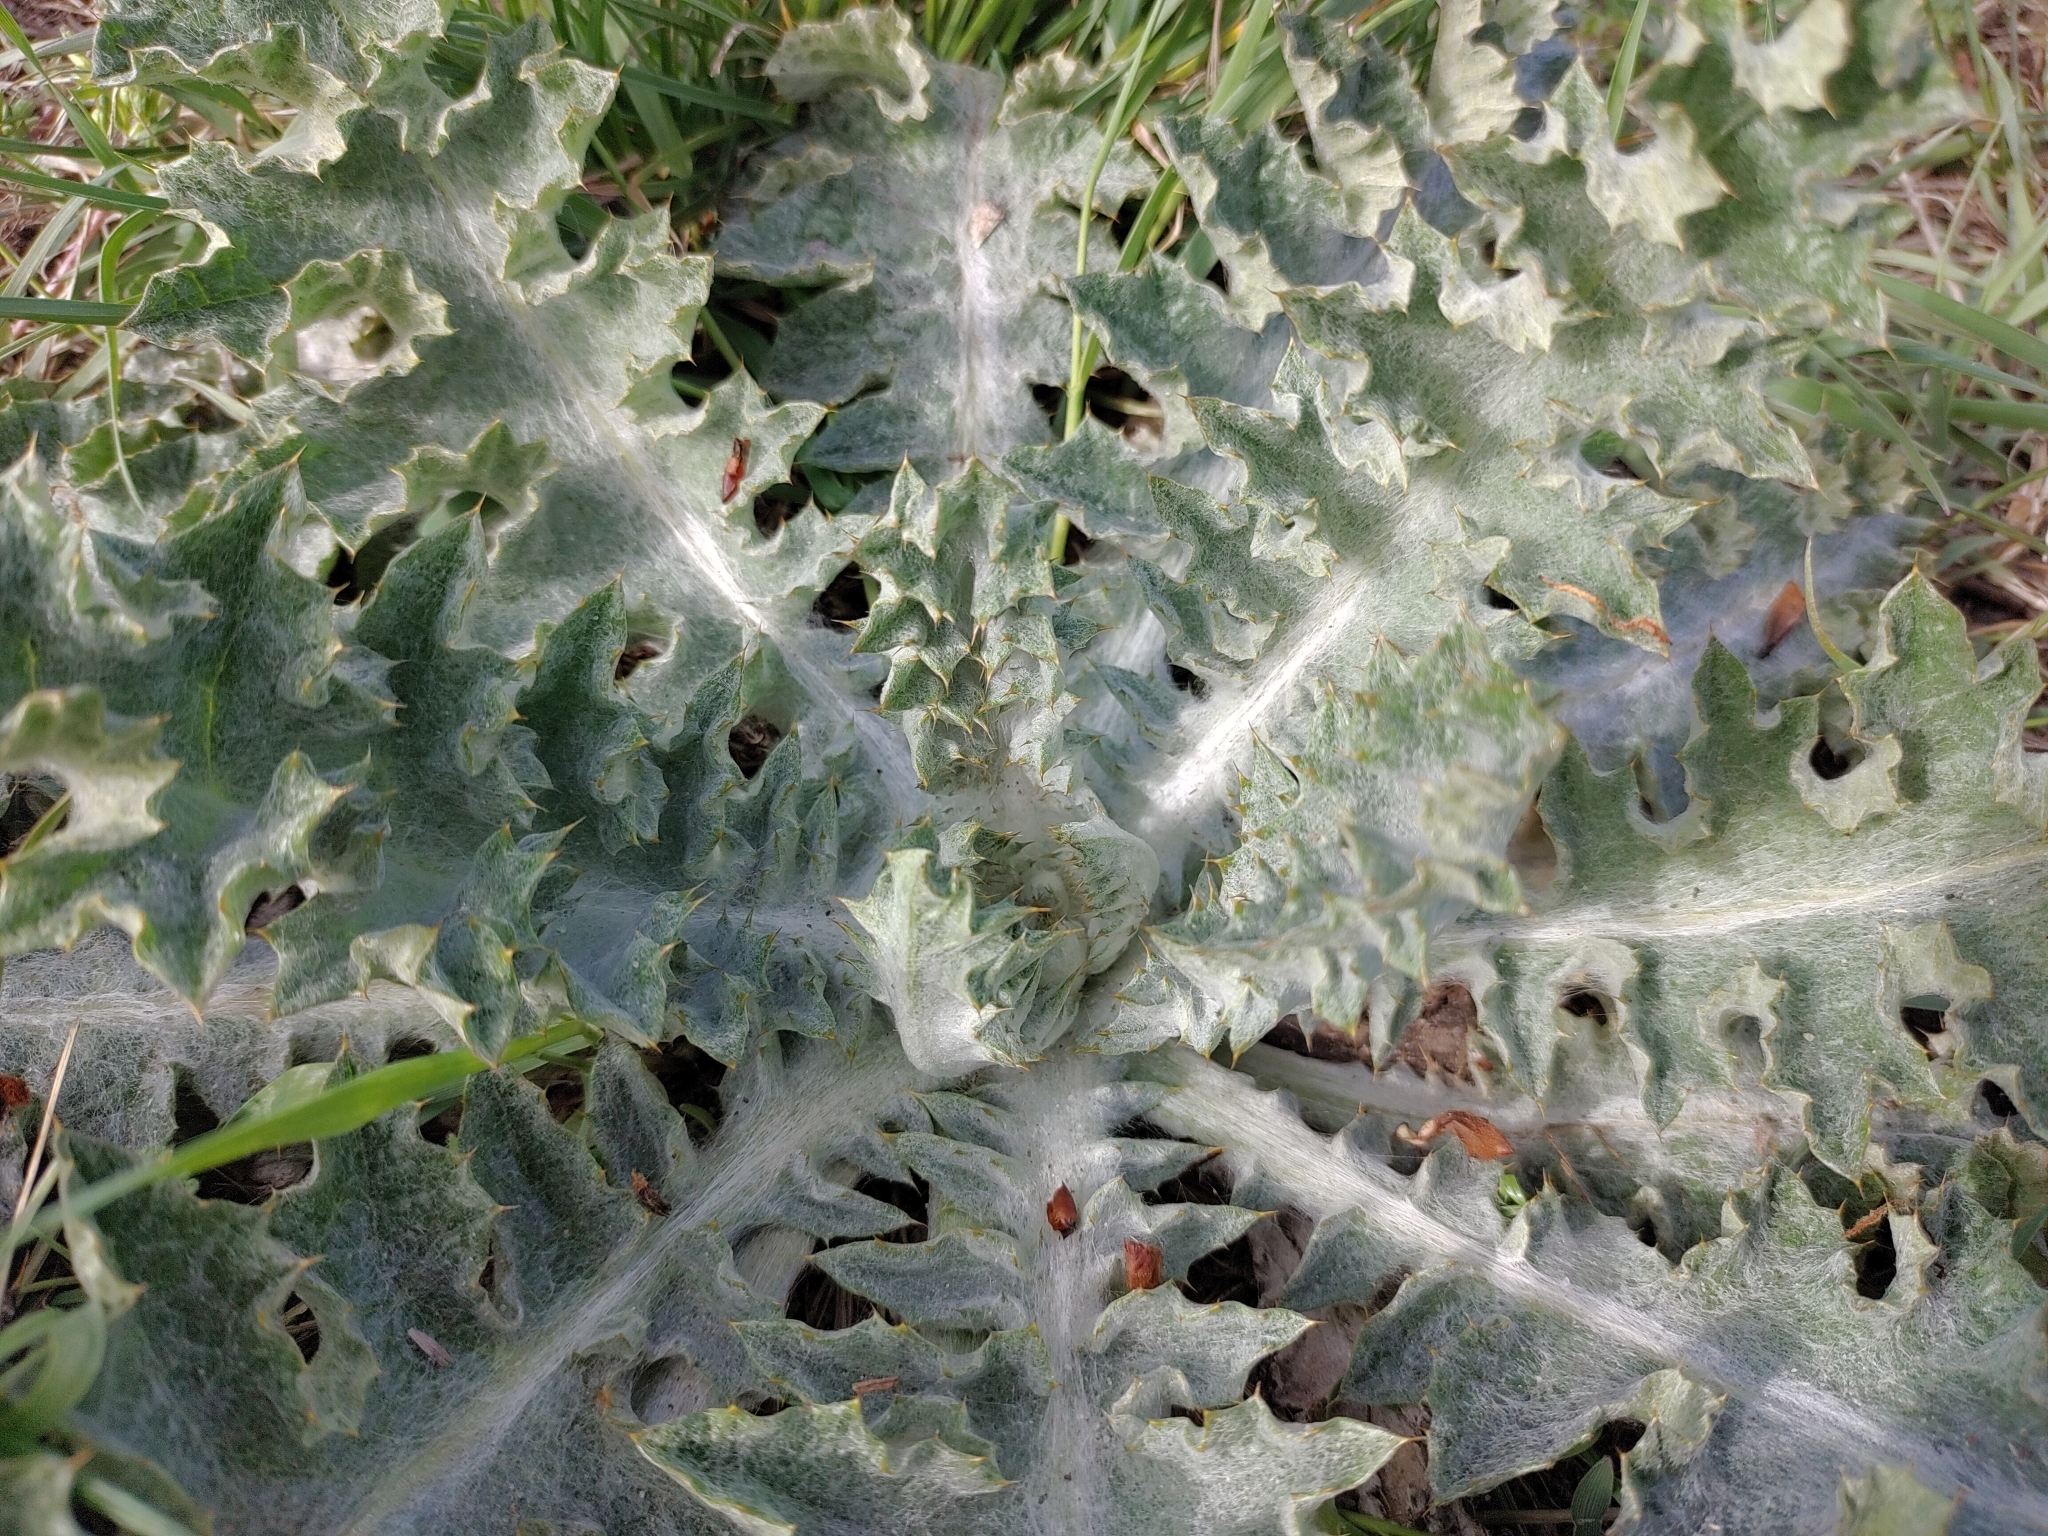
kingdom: Plantae
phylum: Tracheophyta
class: Magnoliopsida
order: Asterales
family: Asteraceae
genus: Onopordum
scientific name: Onopordum acanthium
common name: Scotch thistle
